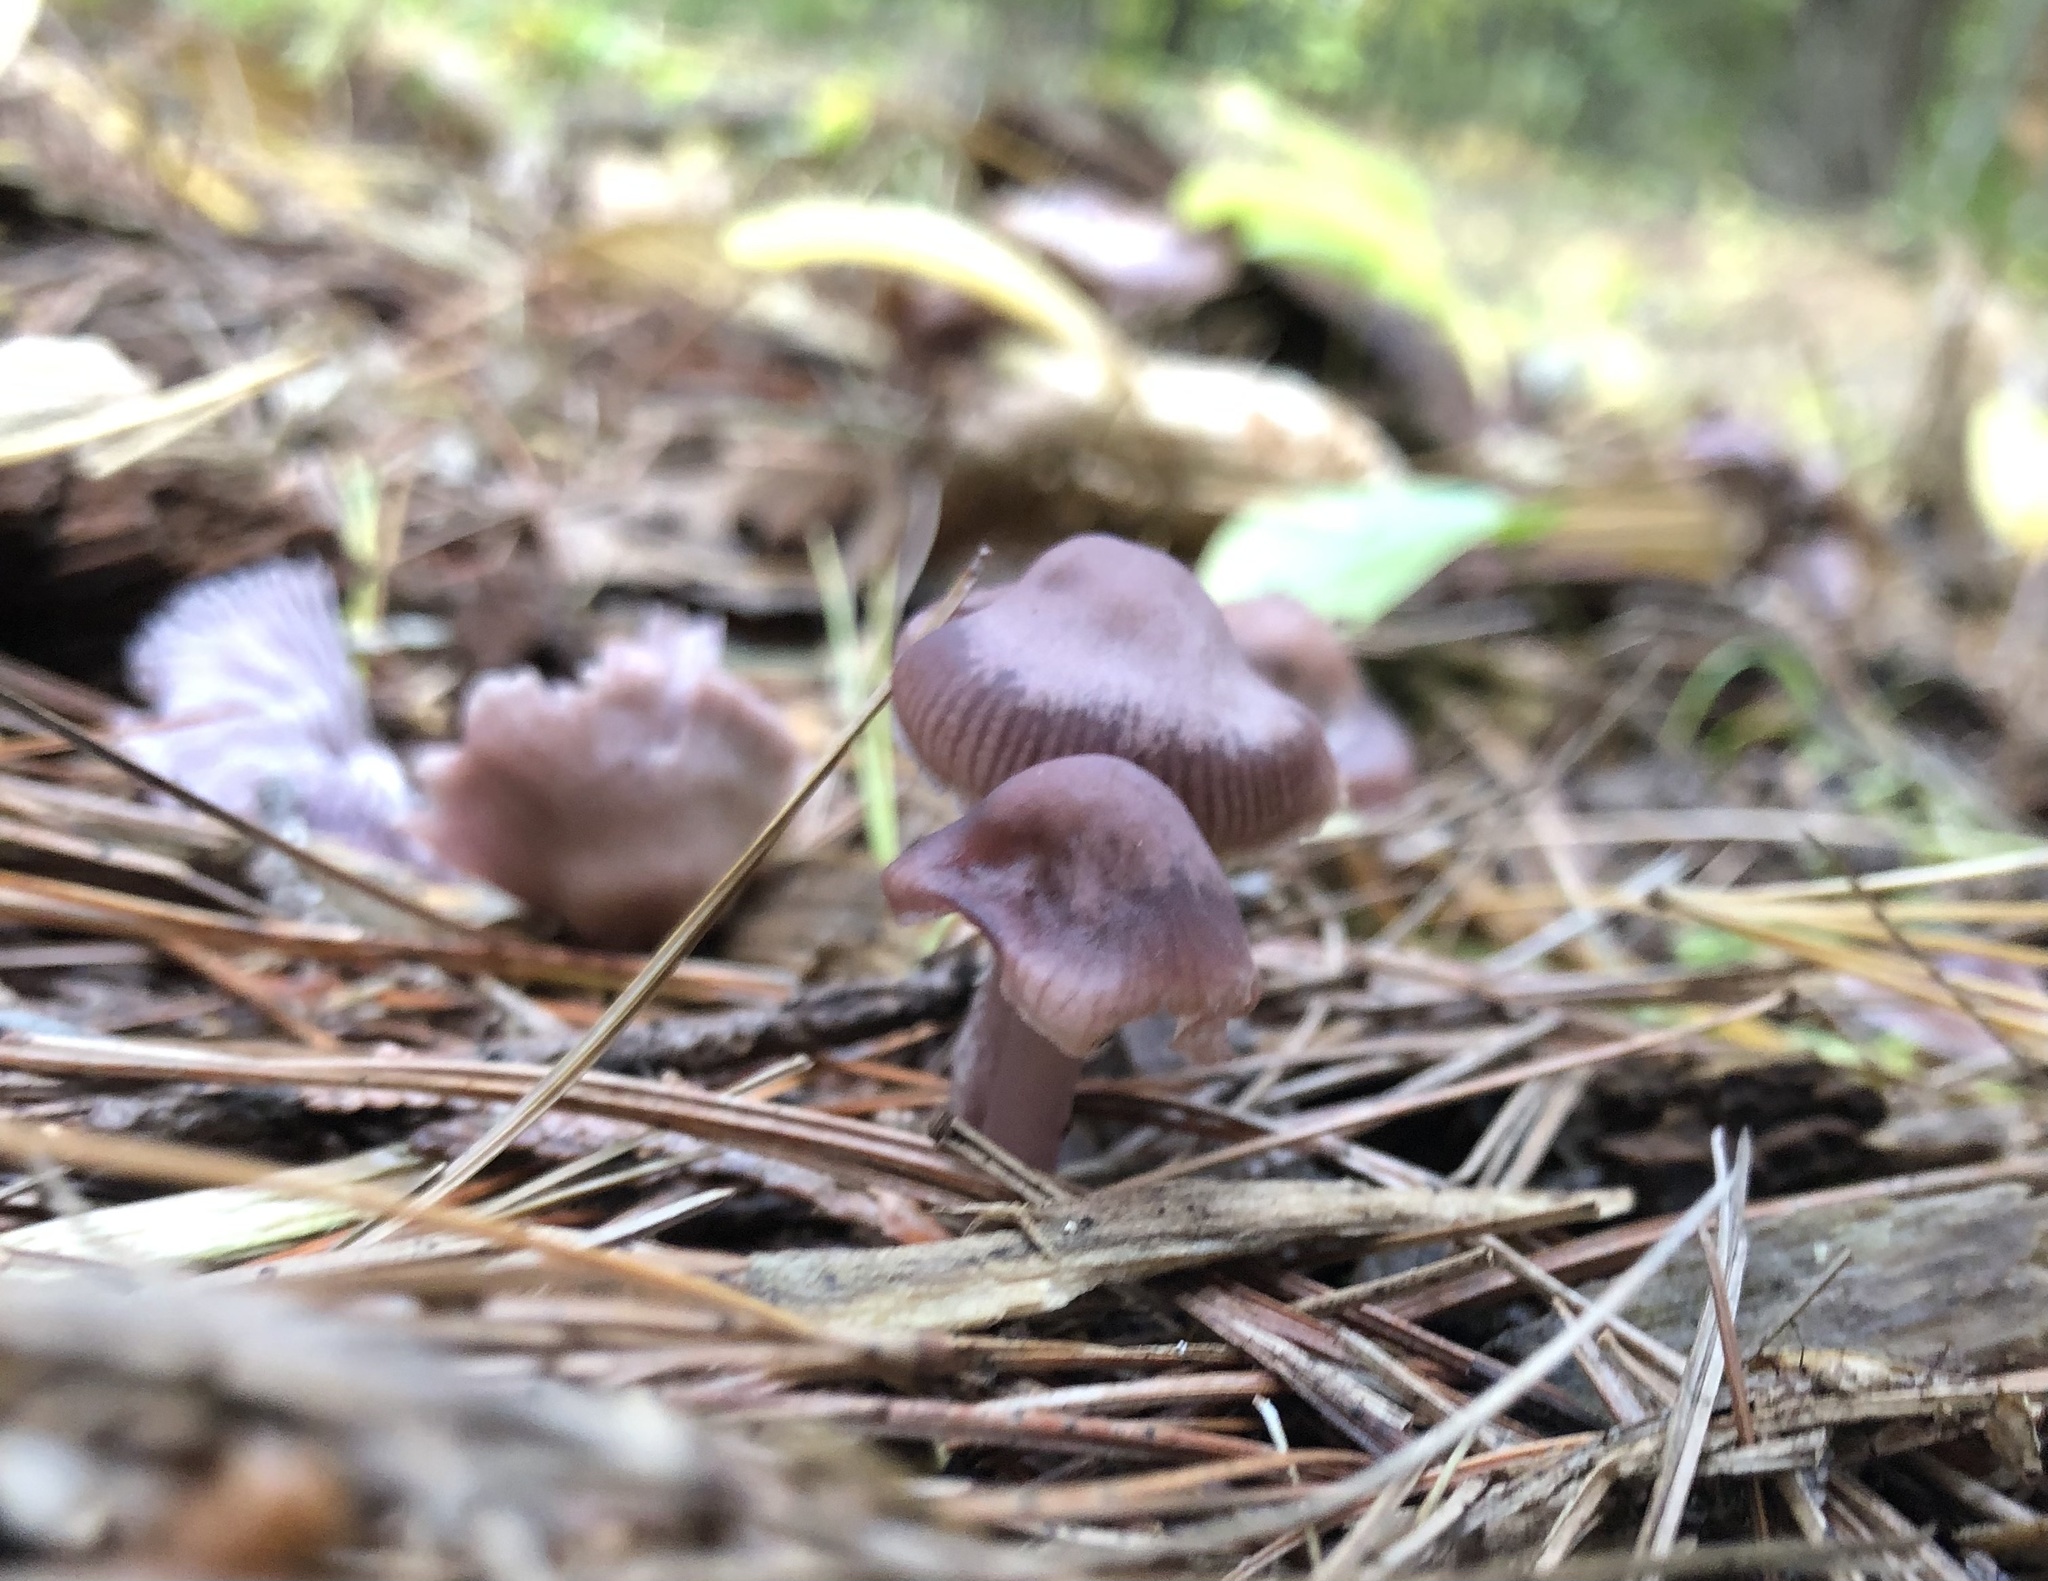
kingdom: Fungi
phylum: Basidiomycota
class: Agaricomycetes
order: Agaricales
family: Mycenaceae
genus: Mycena
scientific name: Mycena pura
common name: Lilac bonnet
